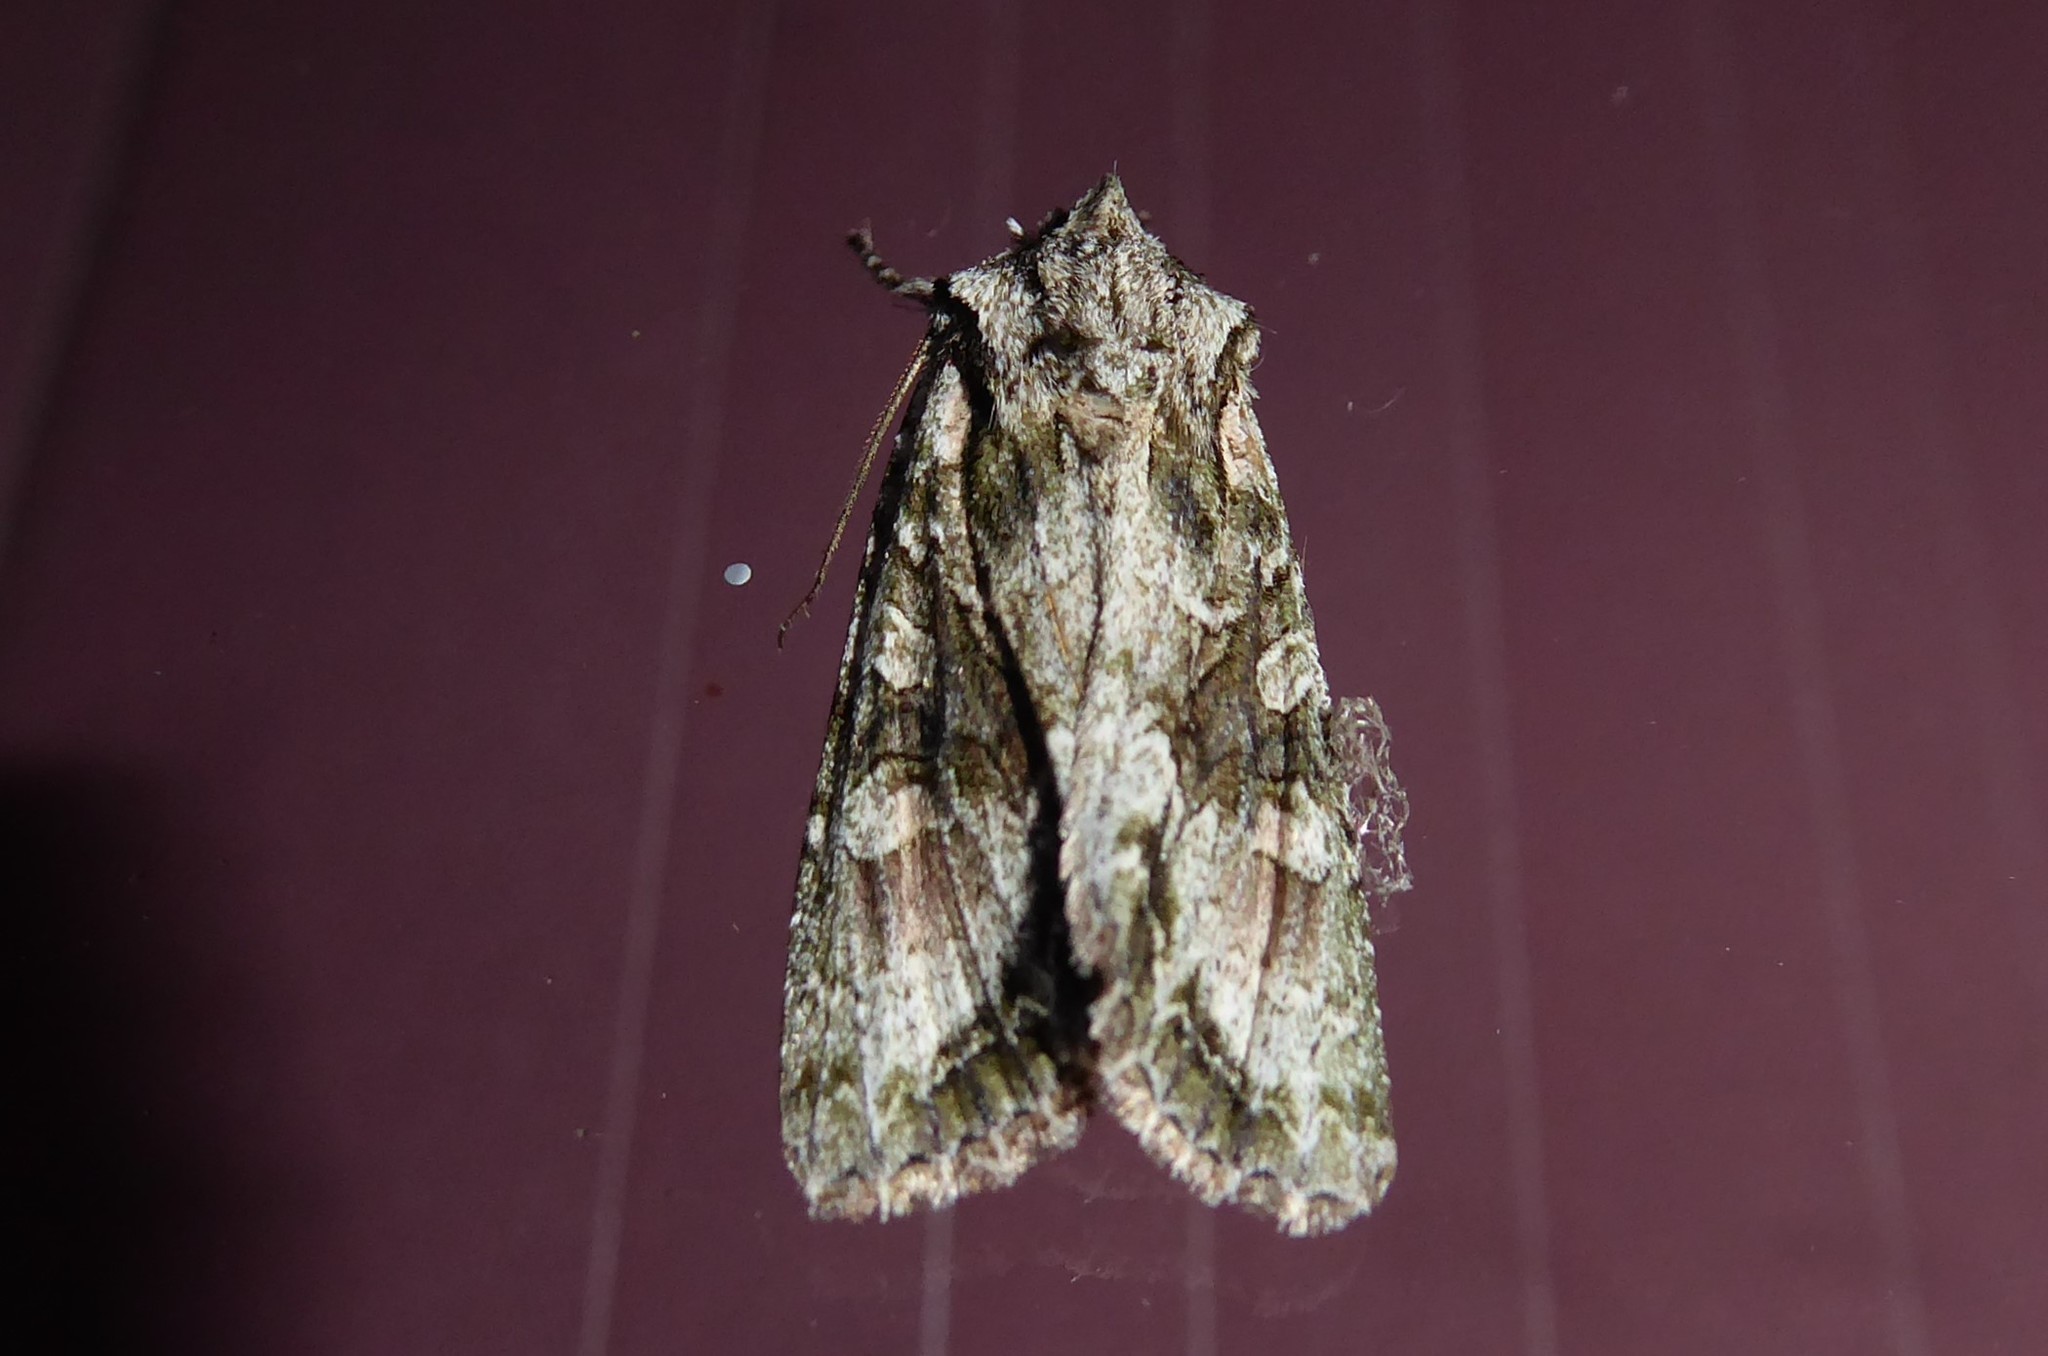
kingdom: Animalia
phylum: Arthropoda
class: Insecta
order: Lepidoptera
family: Noctuidae
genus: Ichneutica
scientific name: Ichneutica mutans
